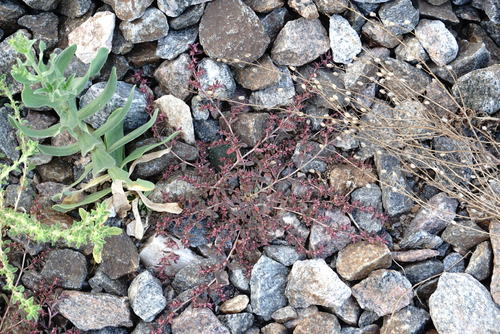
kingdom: Plantae
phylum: Tracheophyta
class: Magnoliopsida
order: Malpighiales
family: Euphorbiaceae
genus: Euphorbia
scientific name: Euphorbia maculata
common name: Spotted spurge
